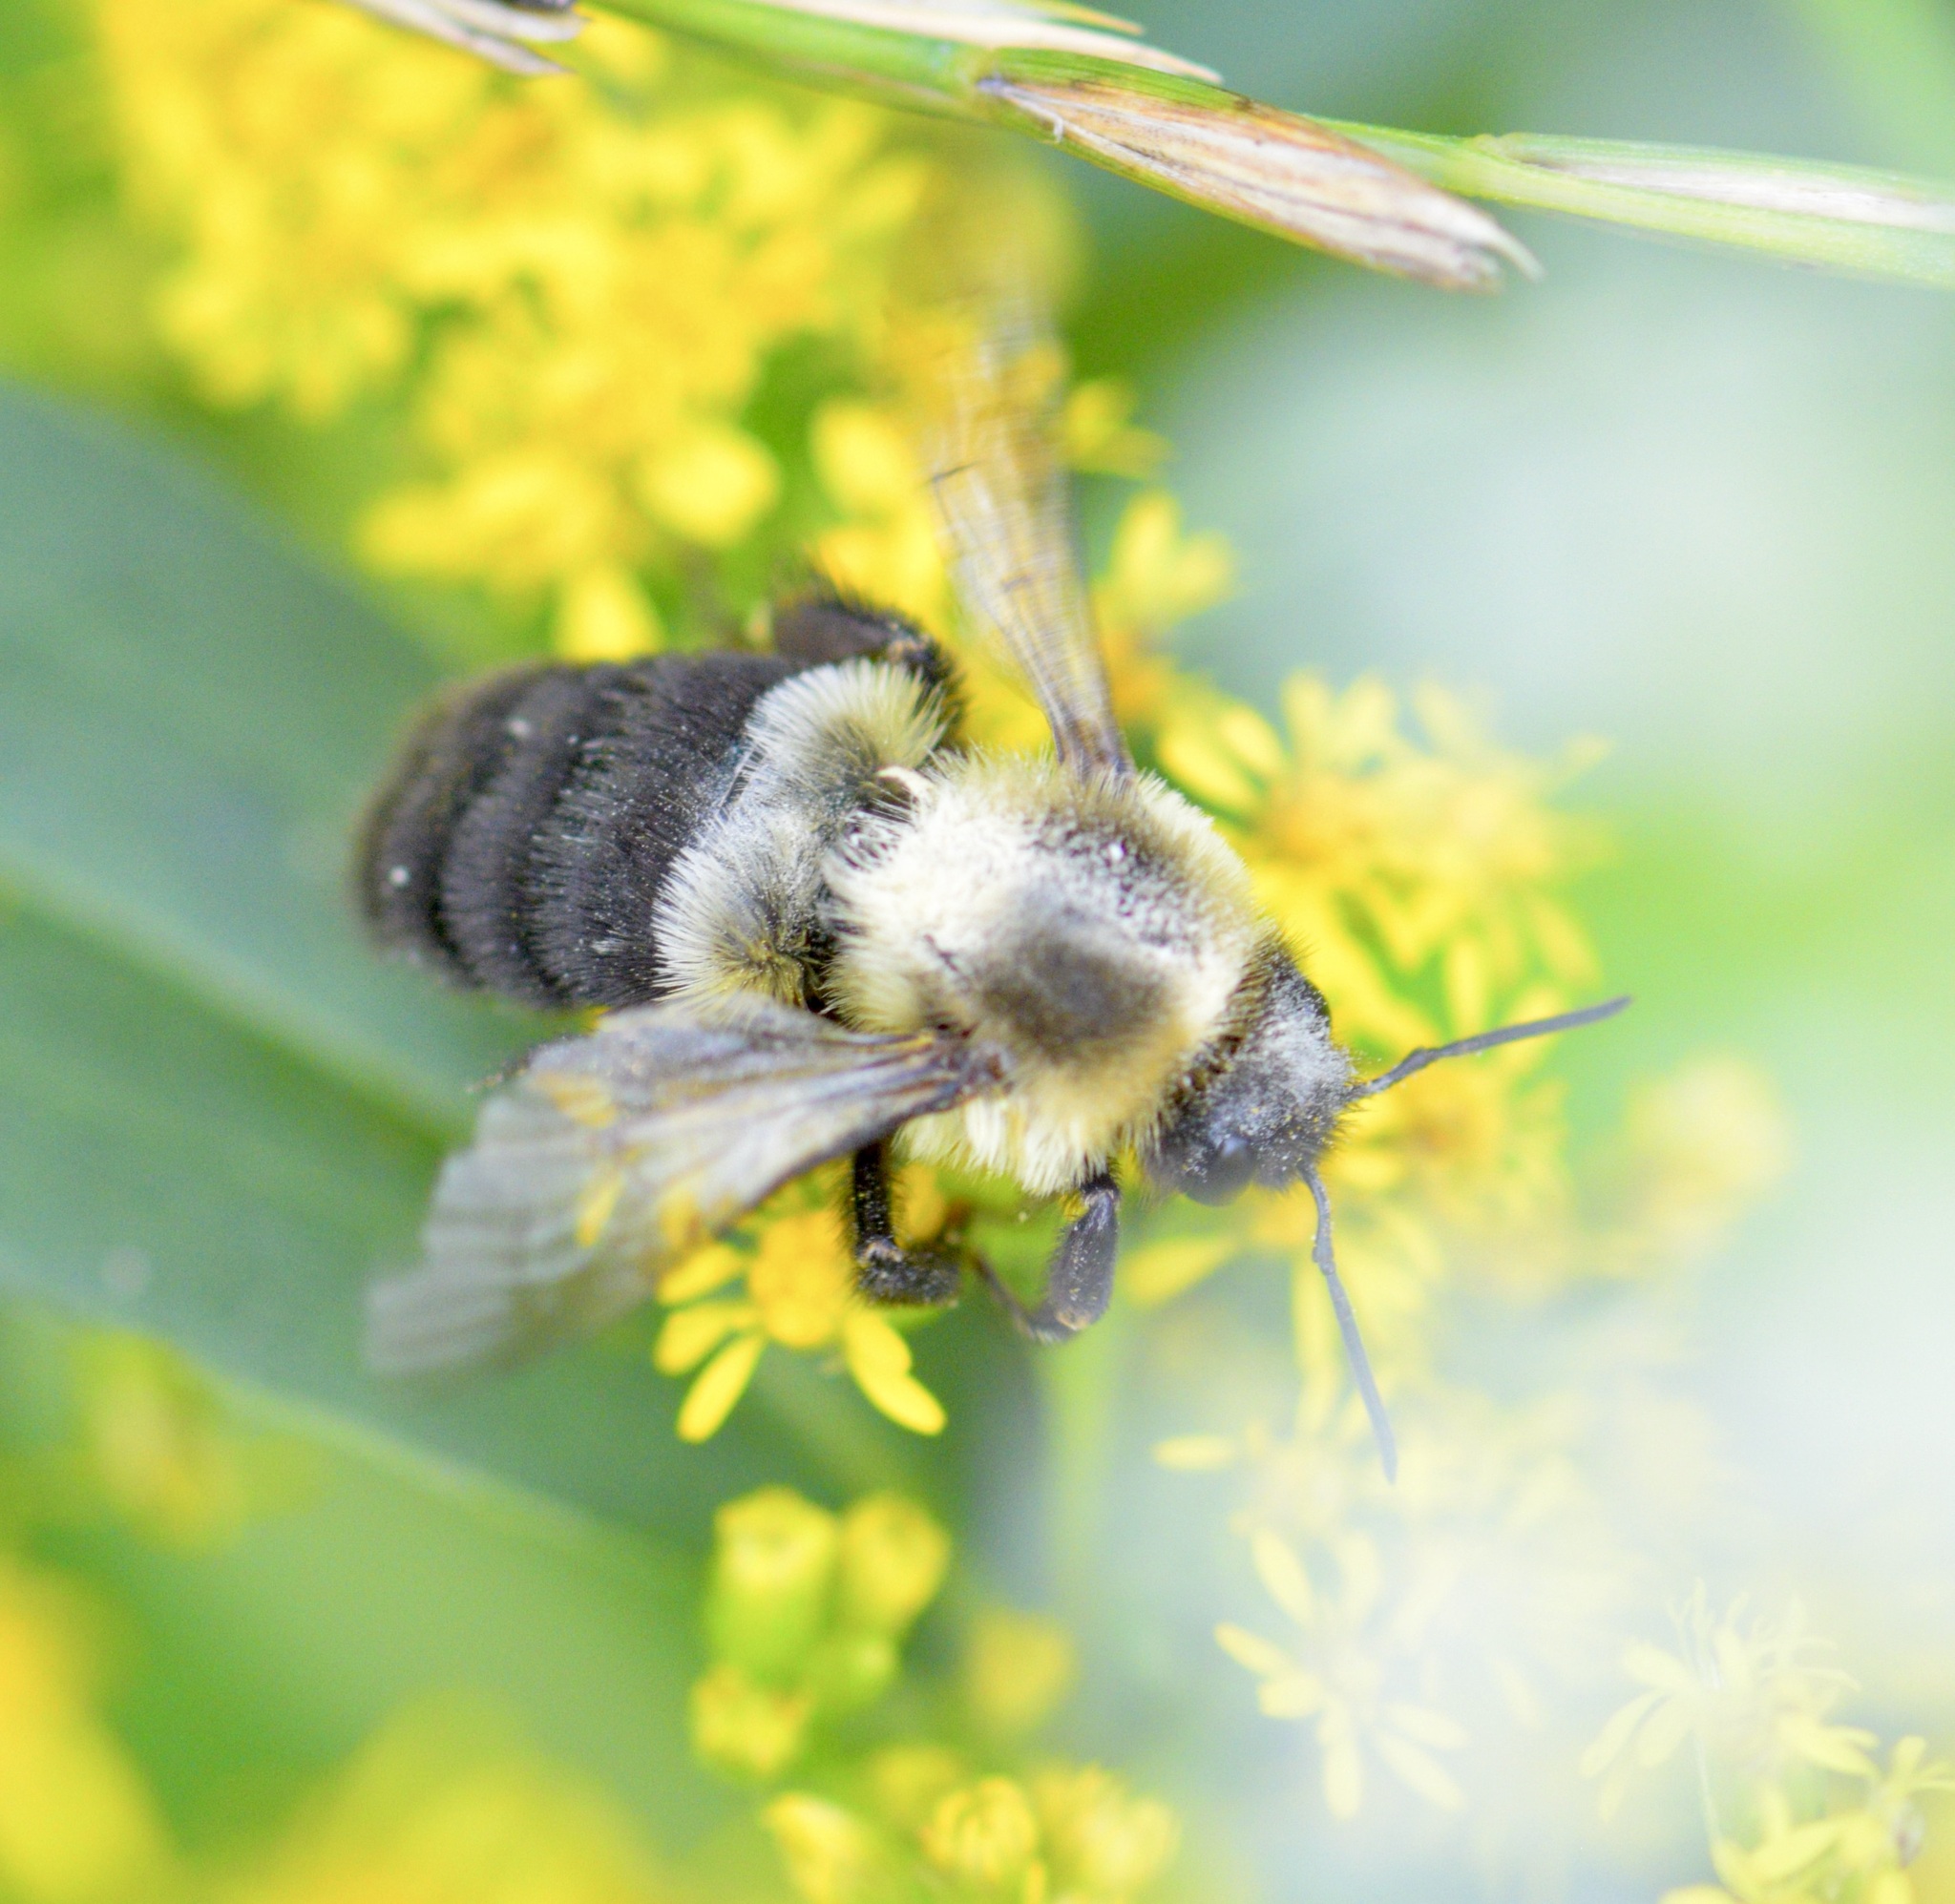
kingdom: Animalia
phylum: Arthropoda
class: Insecta
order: Hymenoptera
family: Apidae
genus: Bombus
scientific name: Bombus impatiens
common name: Common eastern bumble bee
